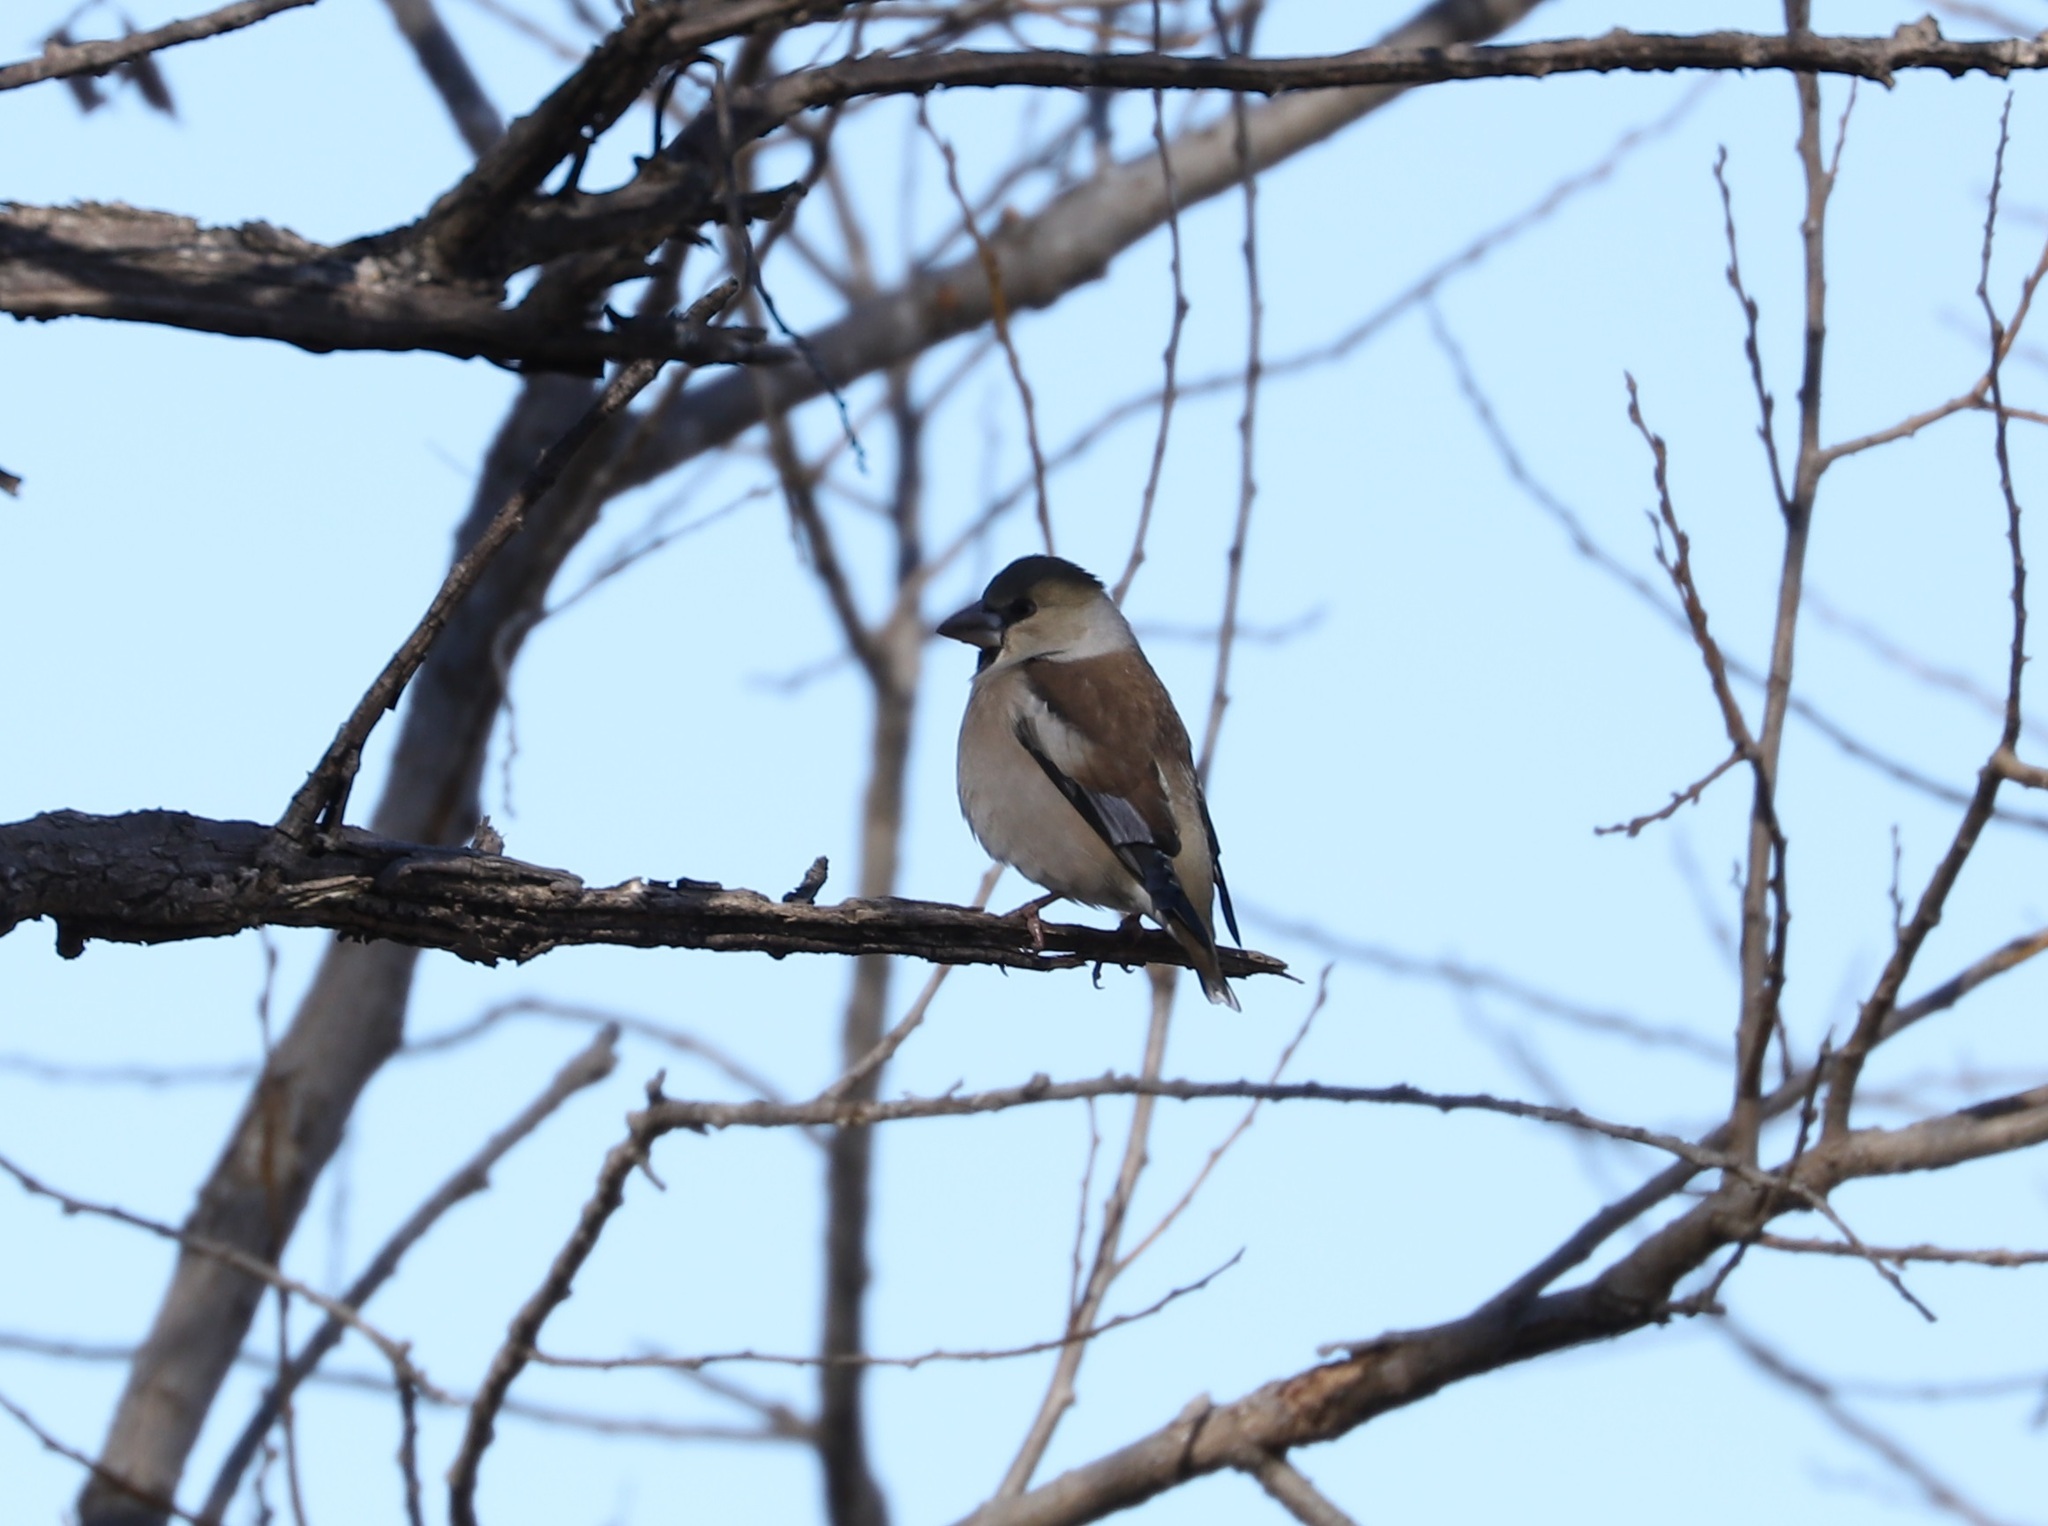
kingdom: Animalia
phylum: Chordata
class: Aves
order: Passeriformes
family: Fringillidae
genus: Coccothraustes
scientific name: Coccothraustes coccothraustes
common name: Hawfinch
